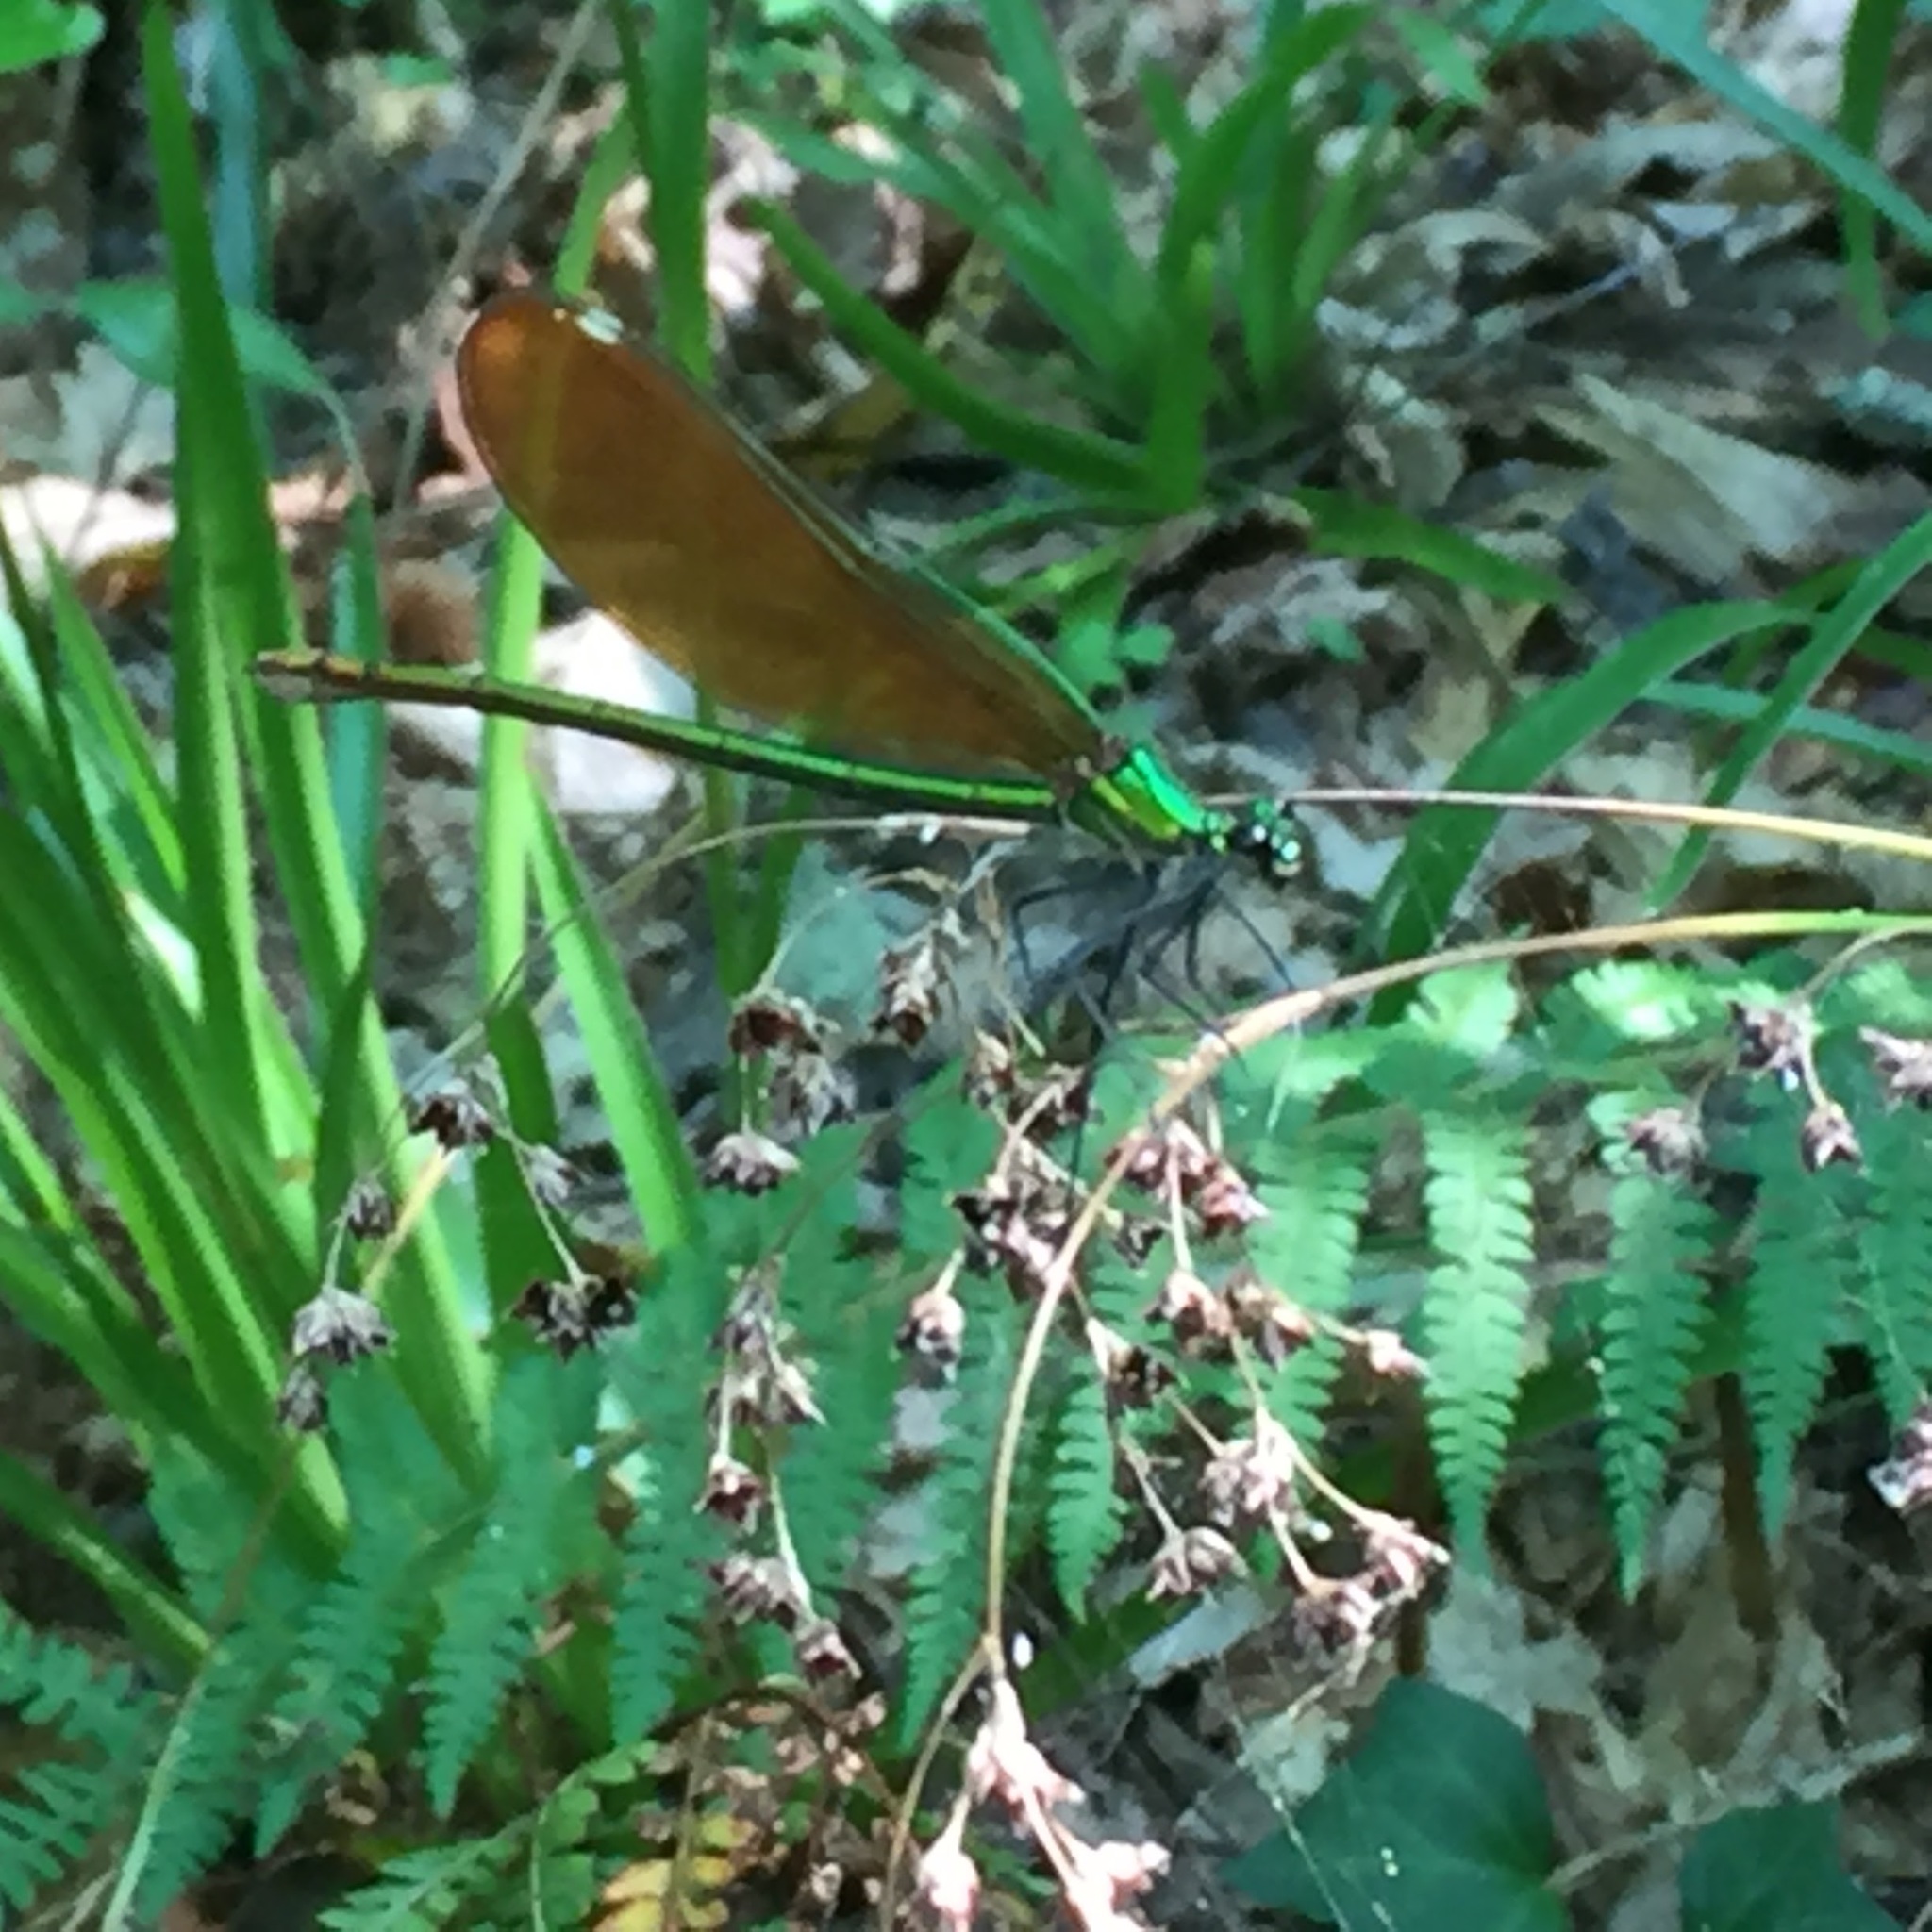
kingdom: Animalia
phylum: Arthropoda
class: Insecta
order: Odonata
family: Calopterygidae
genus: Calopteryx
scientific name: Calopteryx virgo
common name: Beautiful demoiselle
